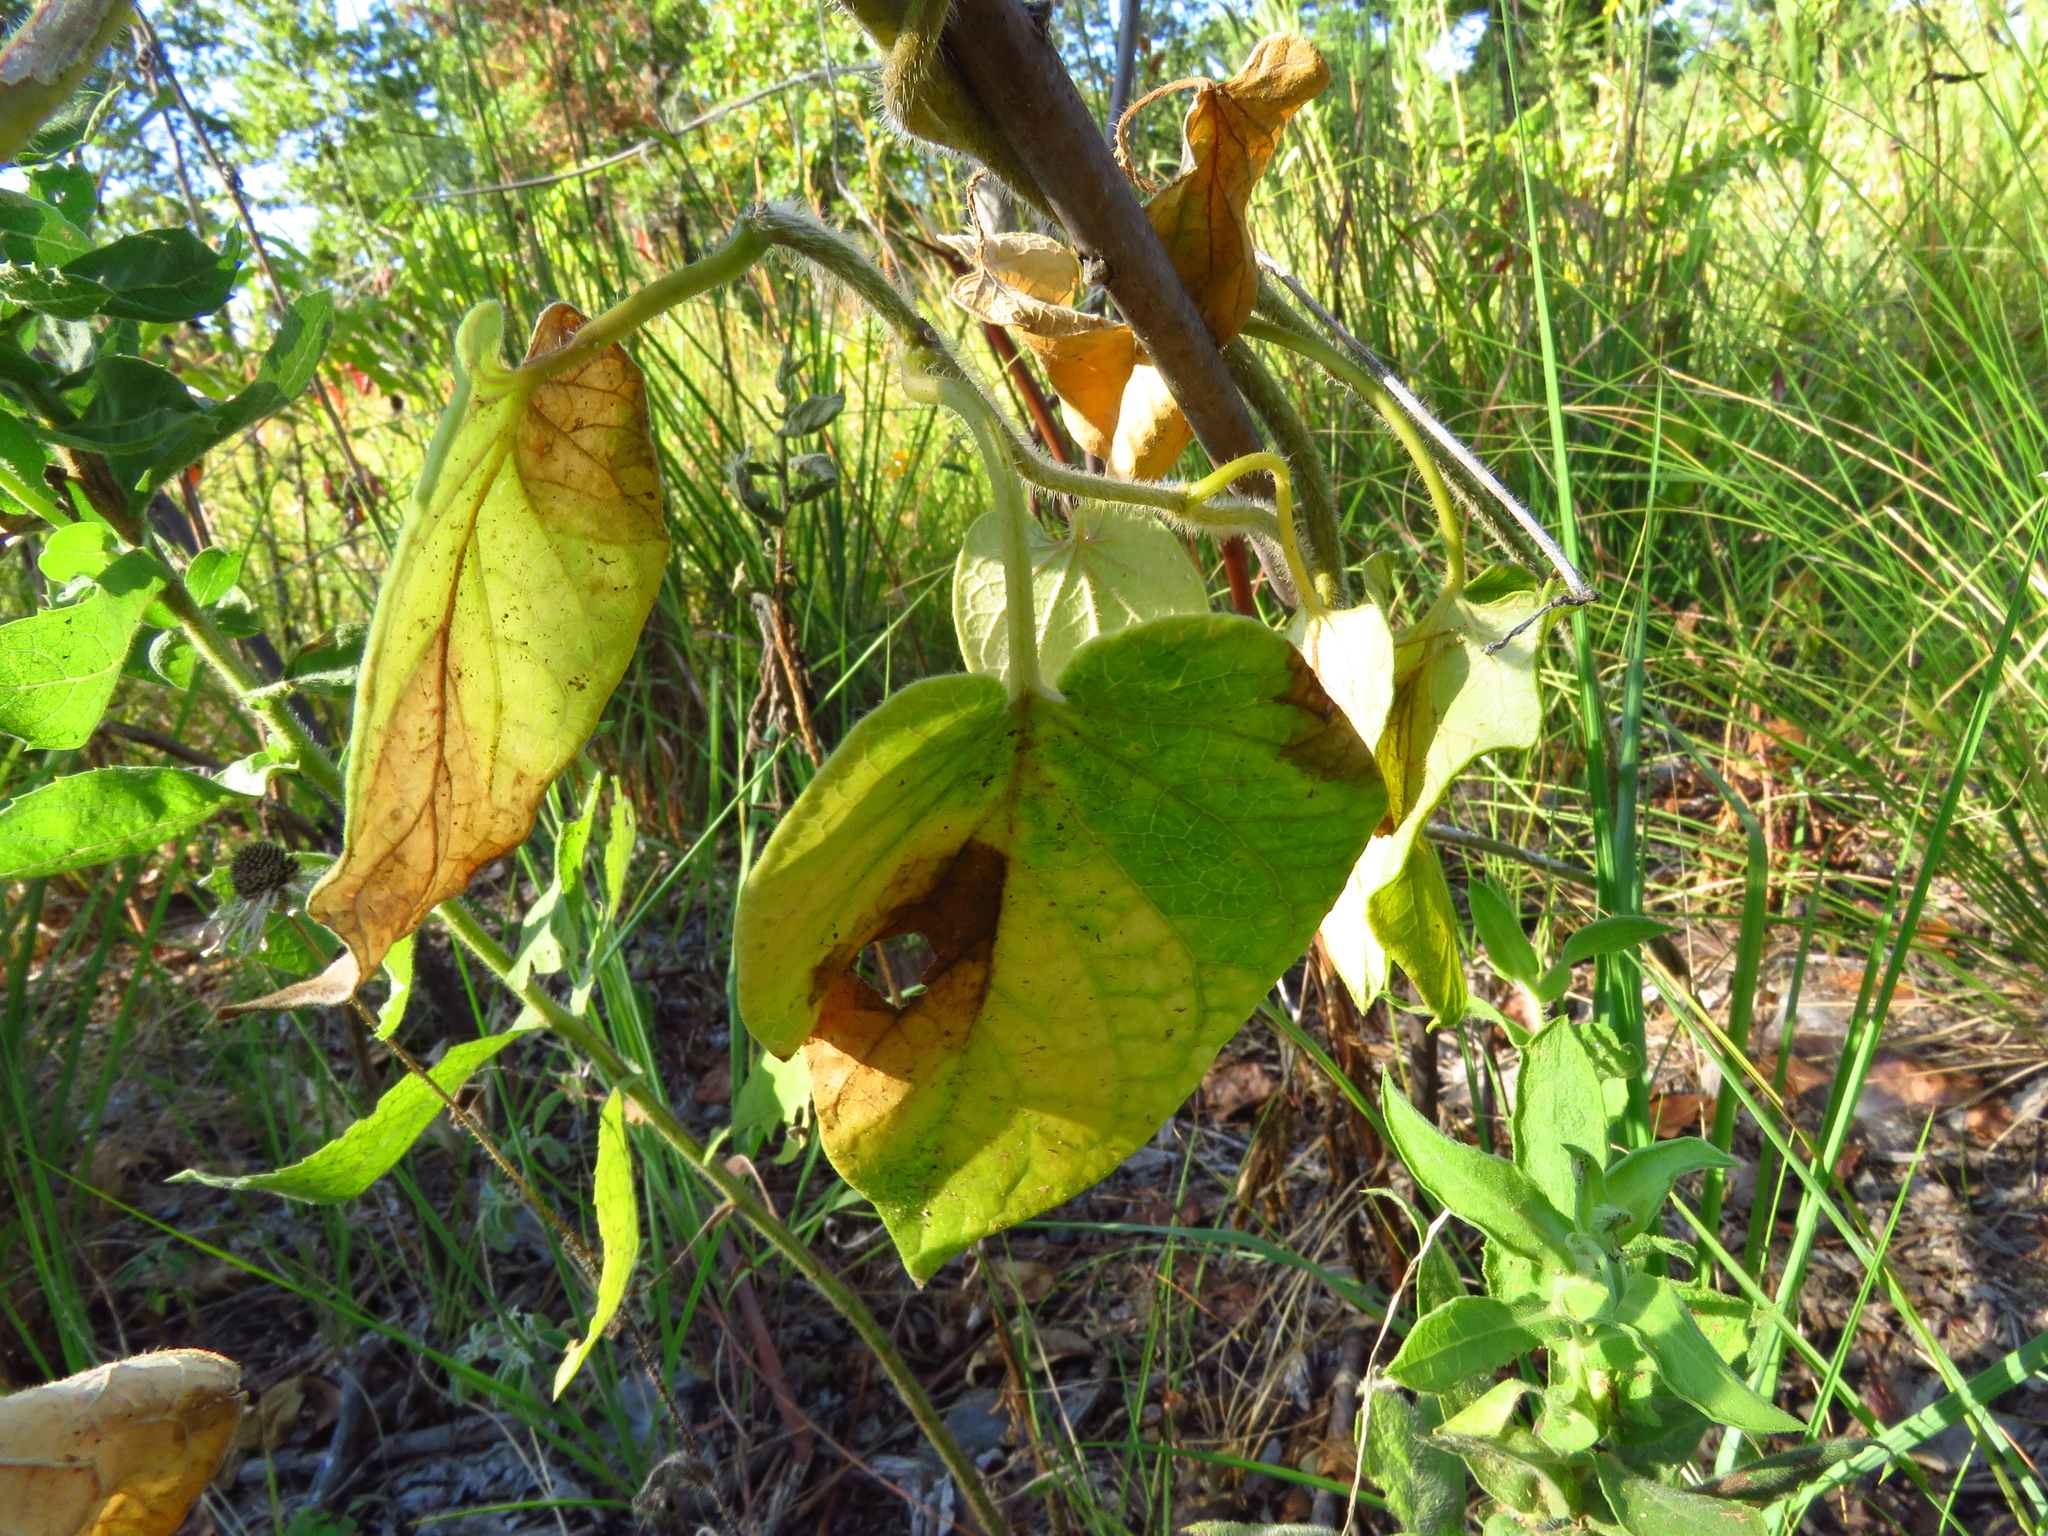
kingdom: Plantae
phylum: Tracheophyta
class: Magnoliopsida
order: Gentianales
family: Apocynaceae
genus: Matelea
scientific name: Matelea hirtelliflora
